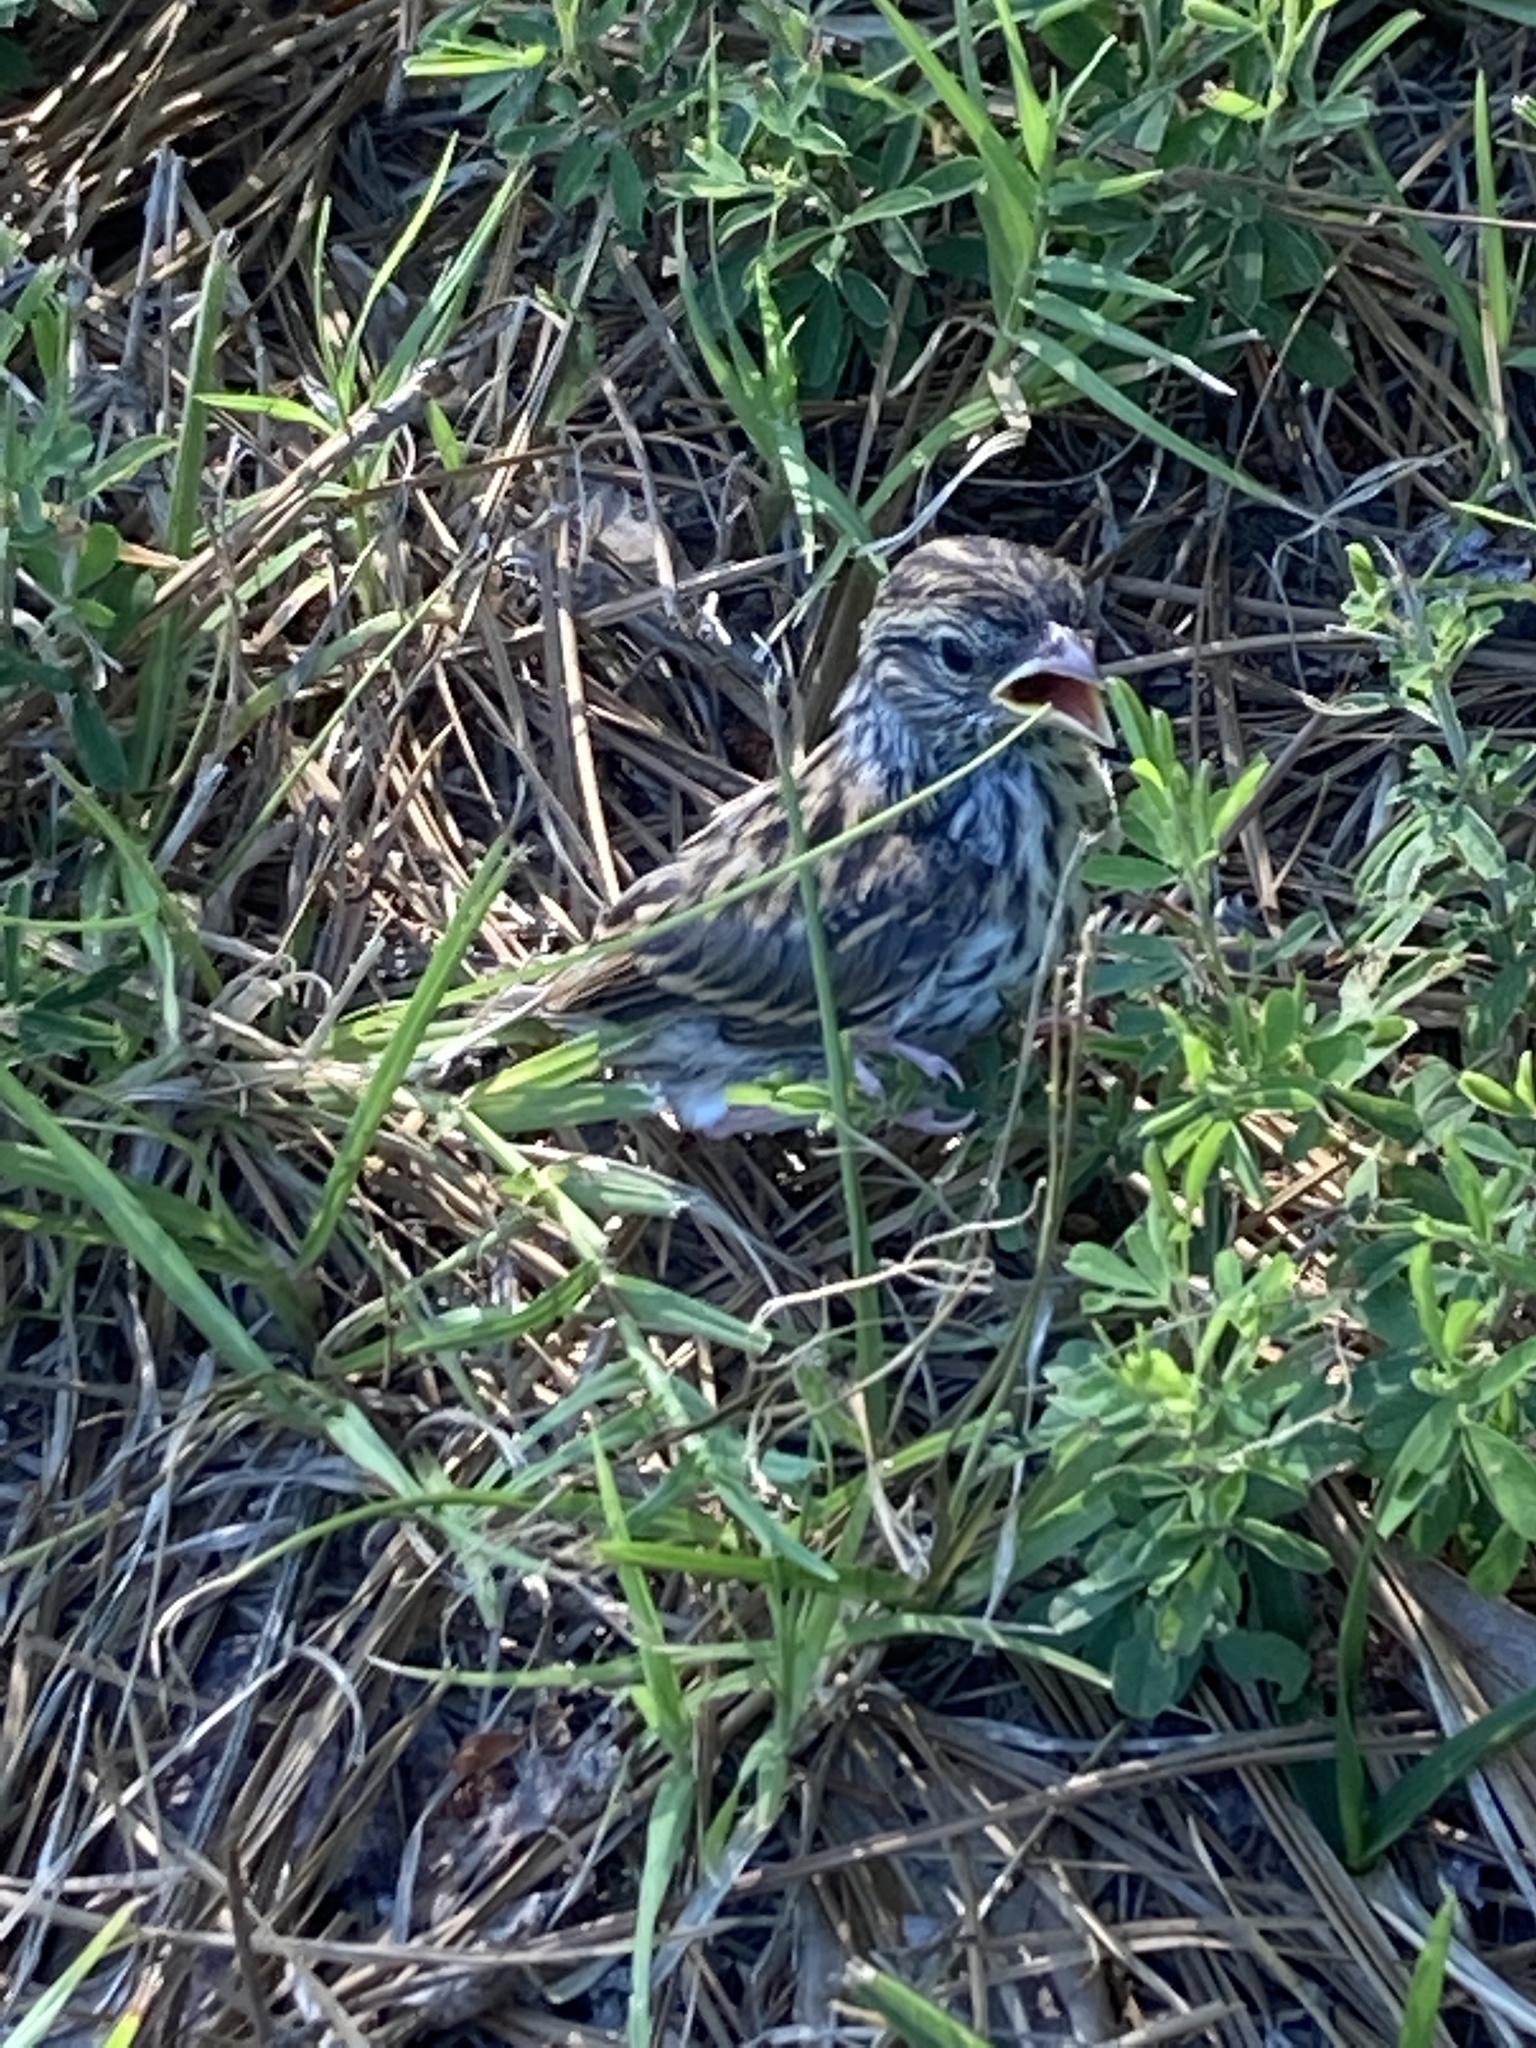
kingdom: Animalia
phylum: Chordata
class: Aves
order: Passeriformes
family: Fringillidae
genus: Haemorhous
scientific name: Haemorhous mexicanus
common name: House finch
